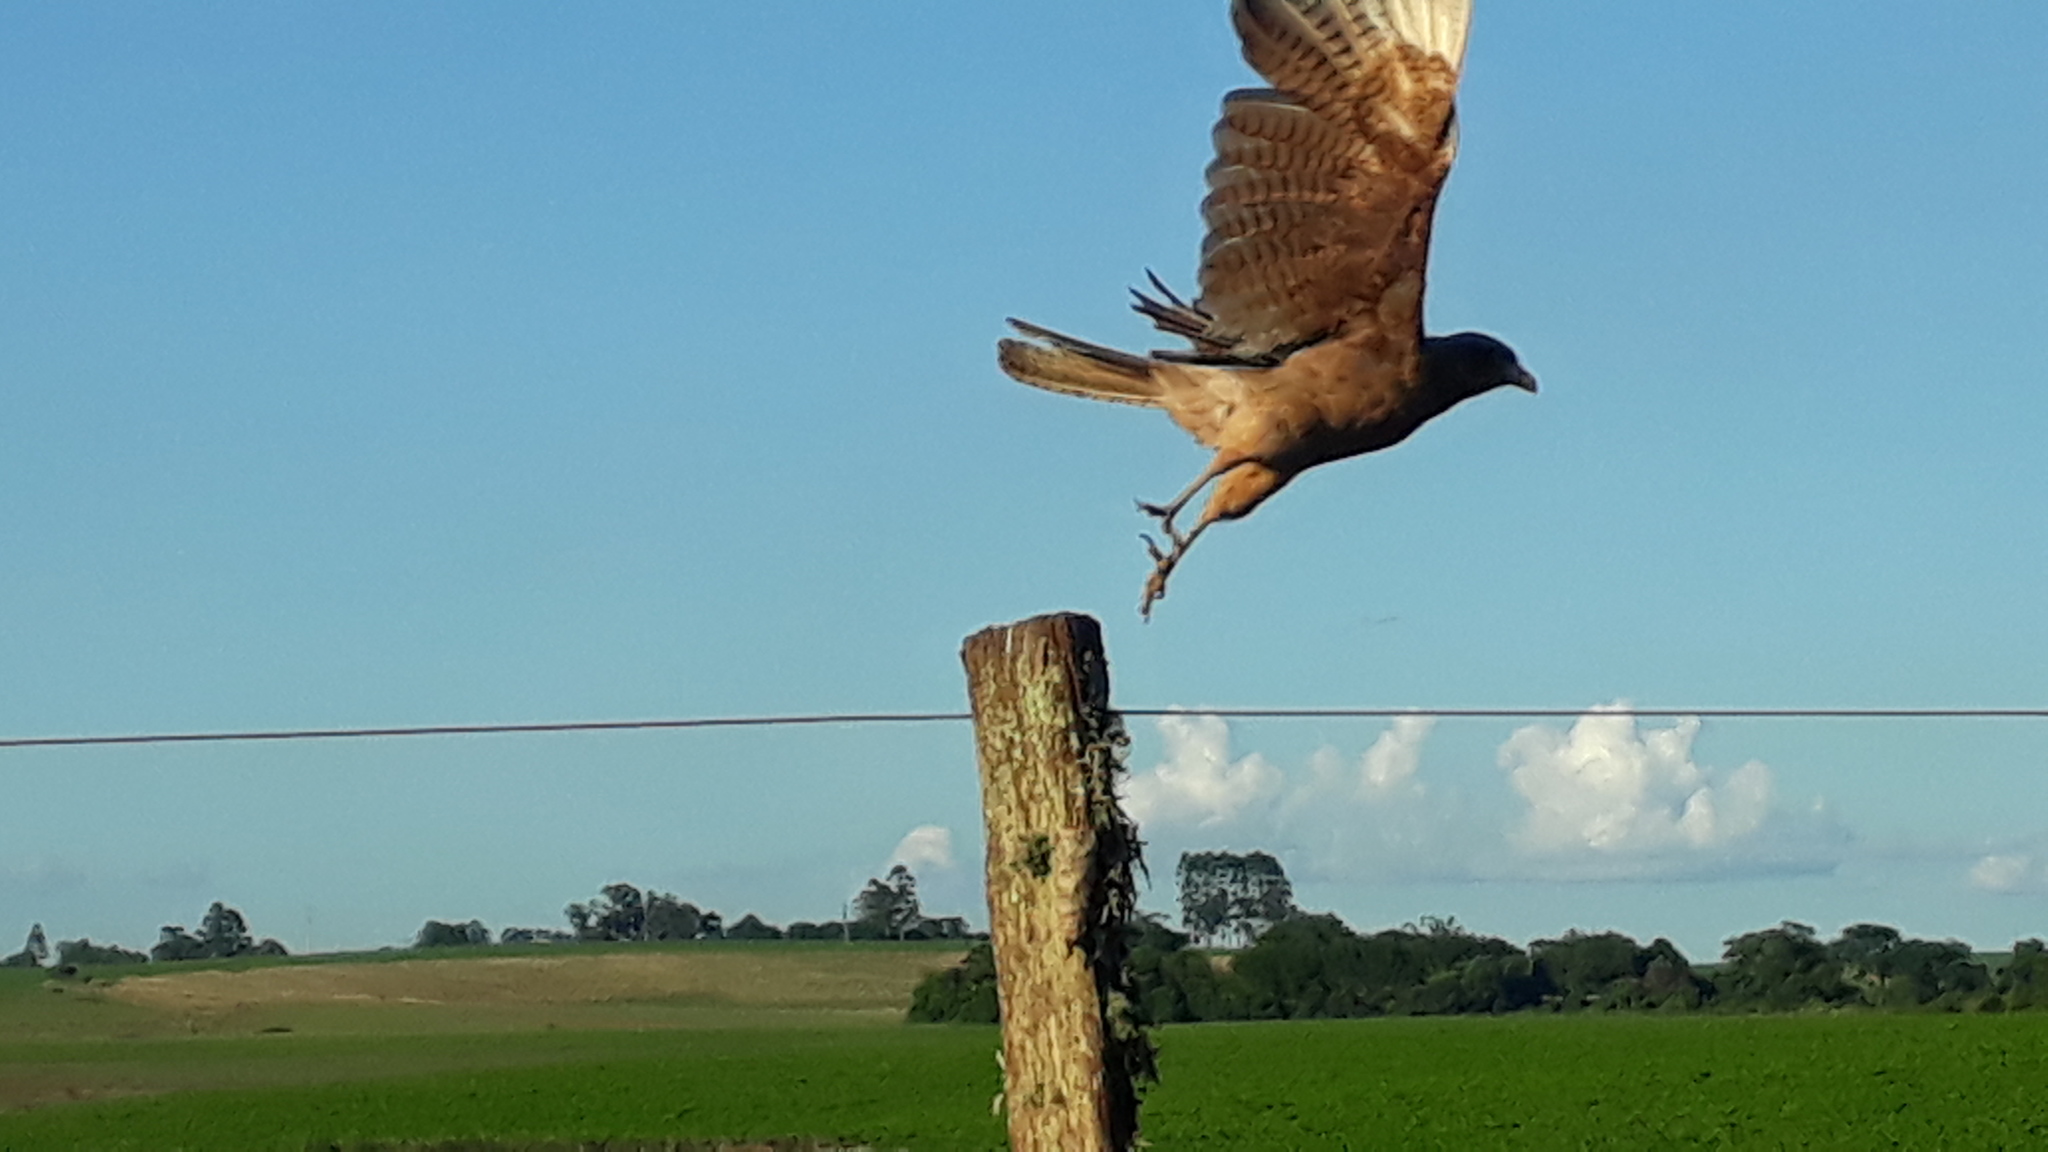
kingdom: Animalia
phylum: Chordata
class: Aves
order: Falconiformes
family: Falconidae
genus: Daptrius
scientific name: Daptrius
